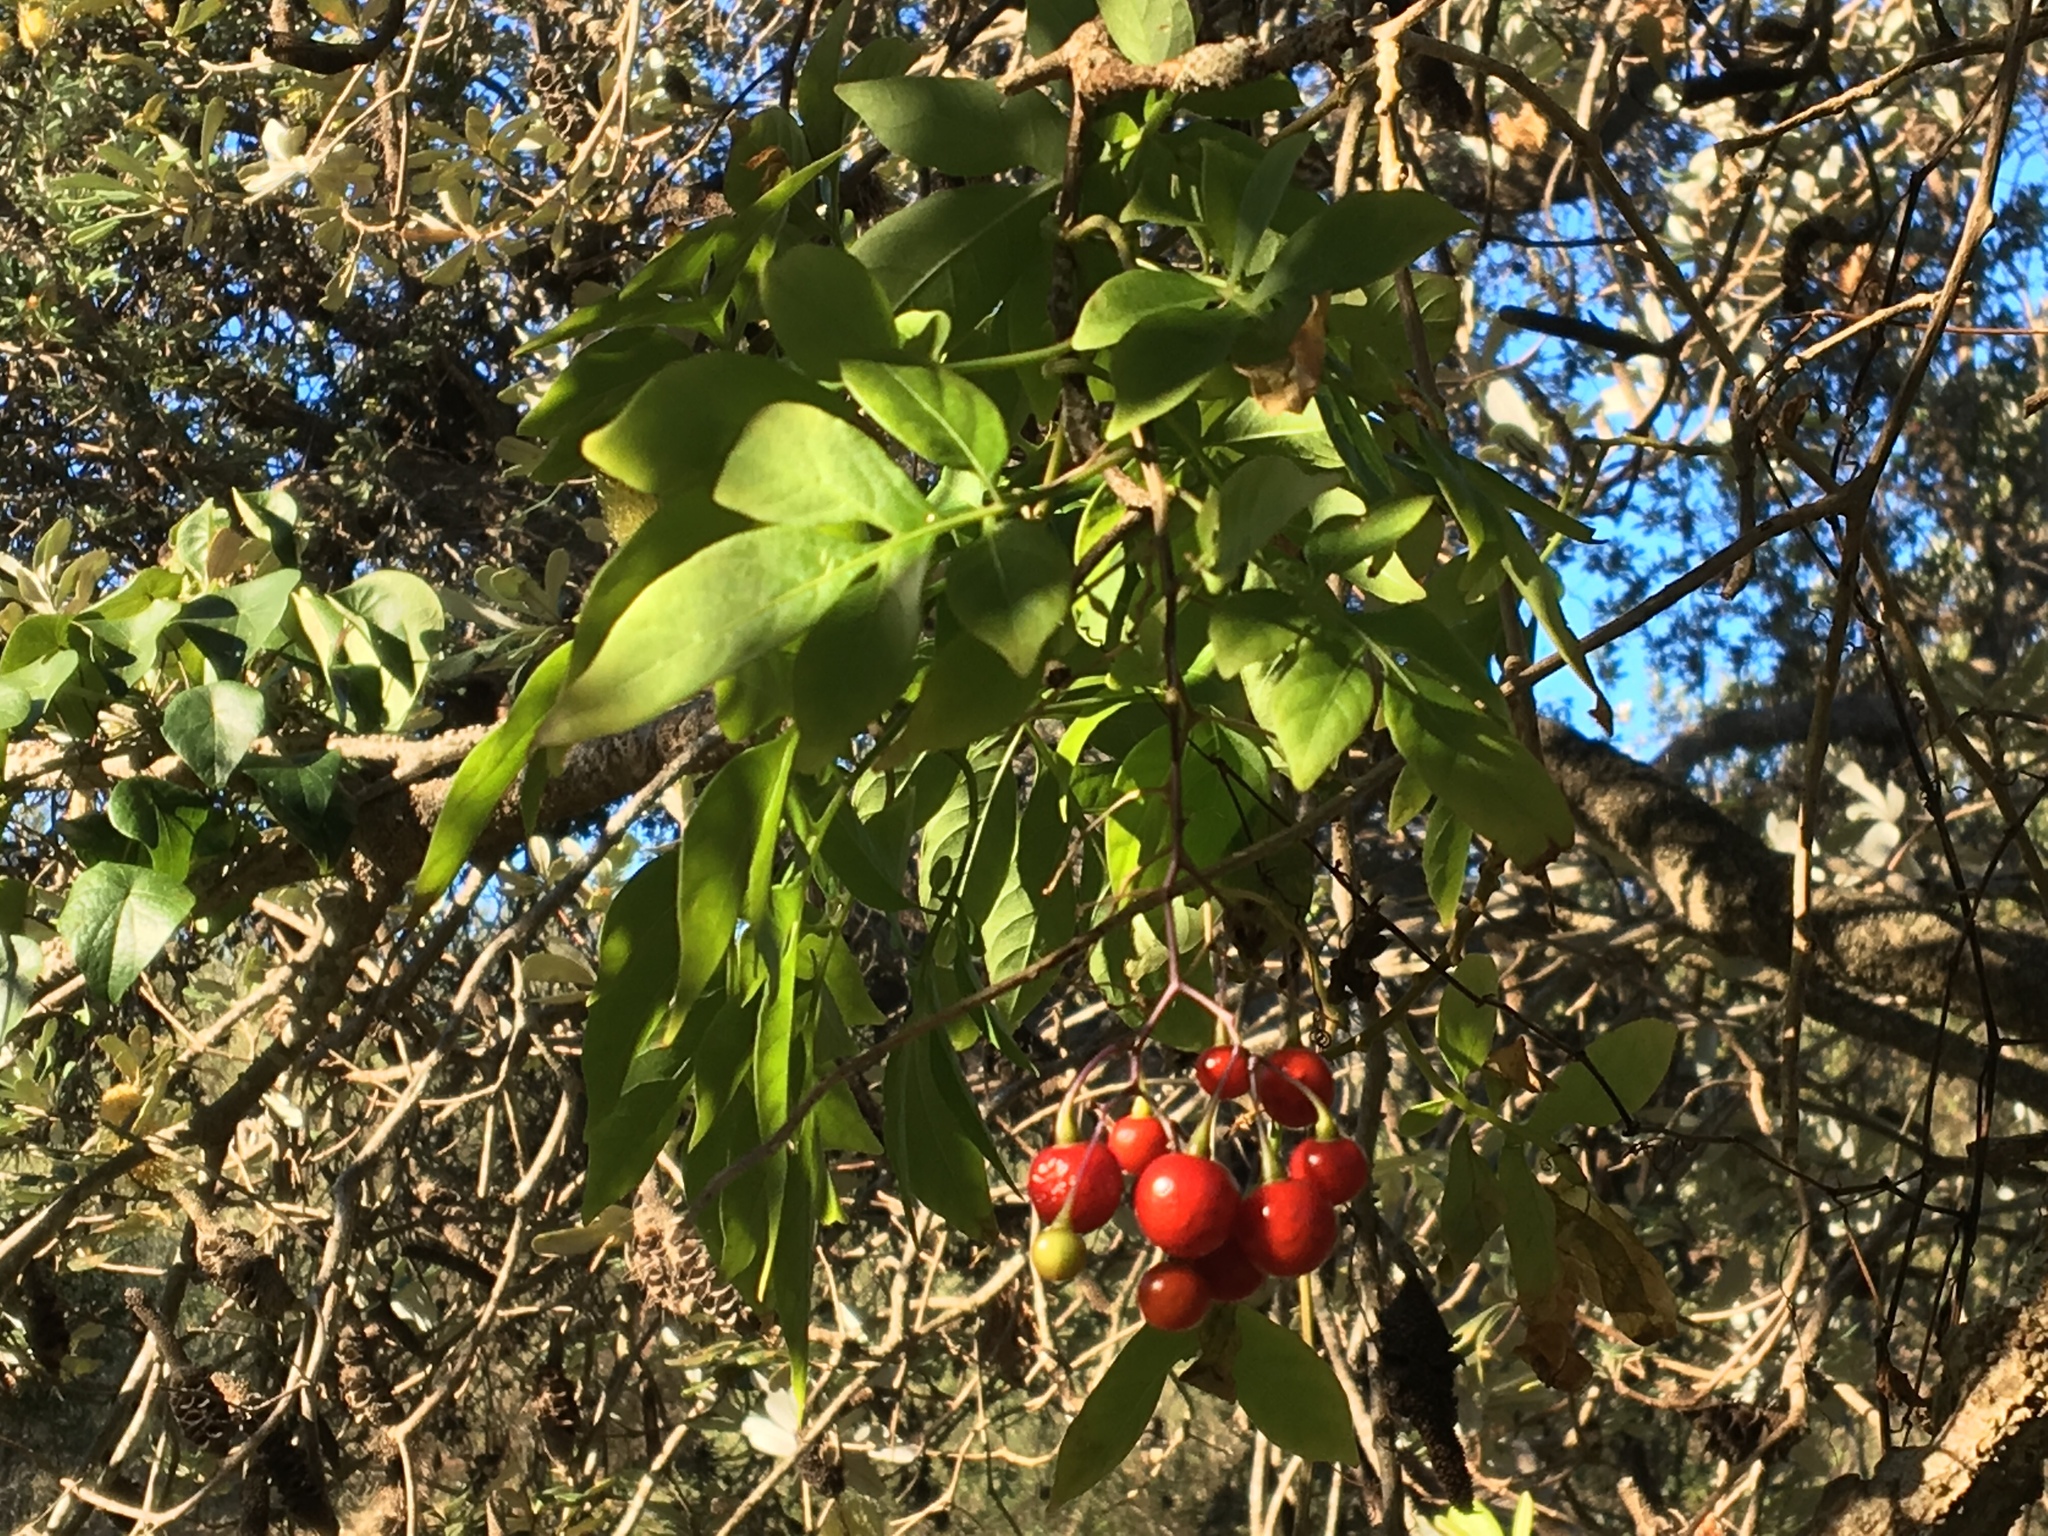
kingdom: Plantae
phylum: Tracheophyta
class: Magnoliopsida
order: Solanales
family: Solanaceae
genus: Solanum
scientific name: Solanum seaforthianum
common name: Brazilian nightshade
